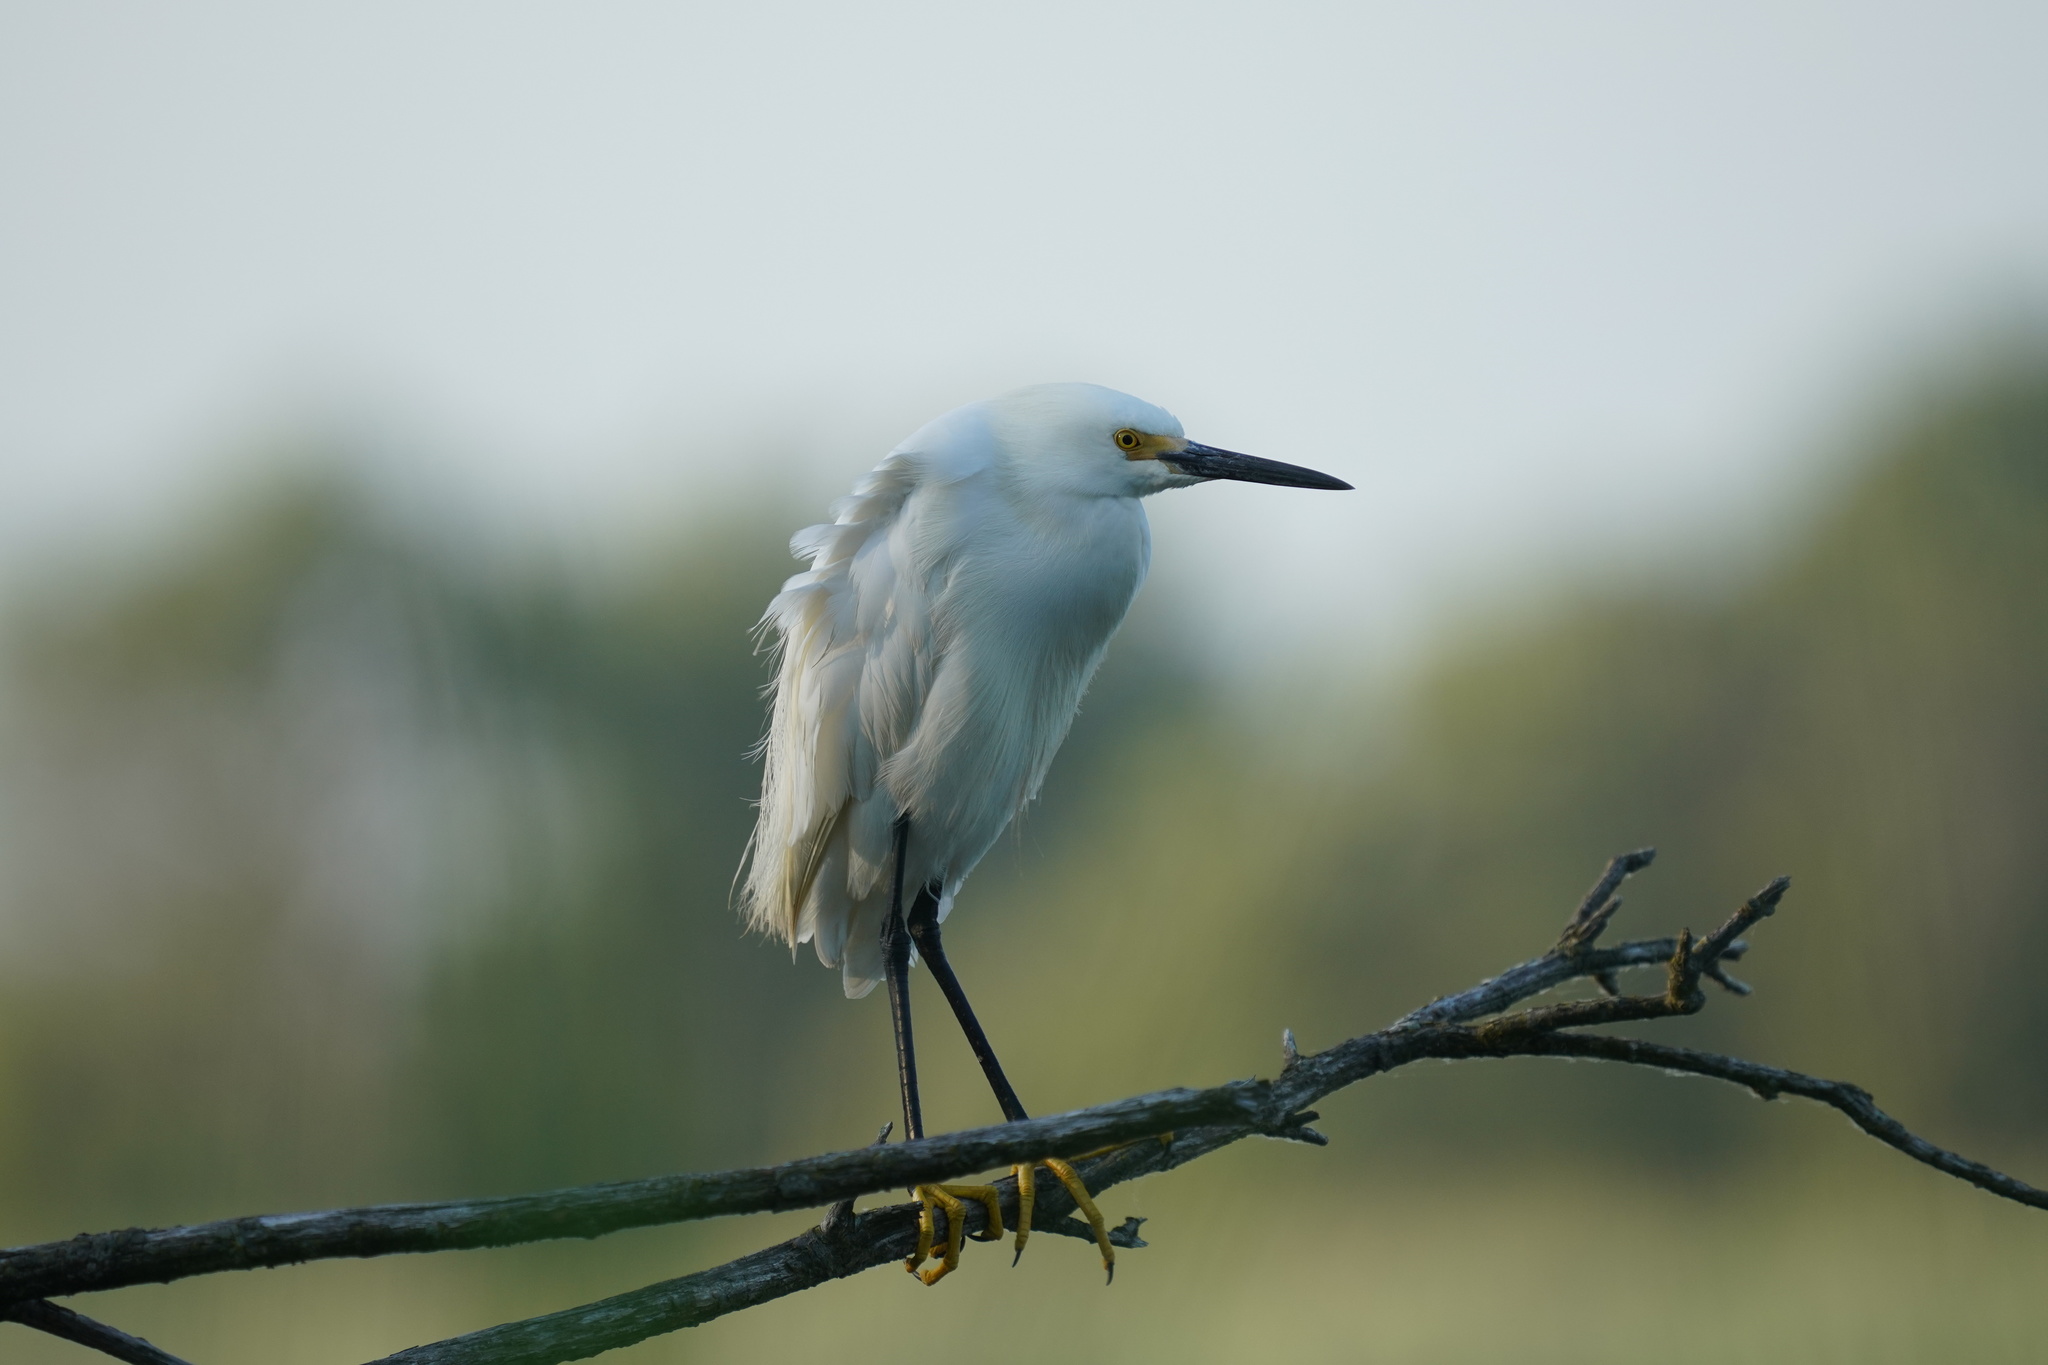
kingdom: Animalia
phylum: Chordata
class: Aves
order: Pelecaniformes
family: Ardeidae
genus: Egretta
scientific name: Egretta thula
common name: Snowy egret
